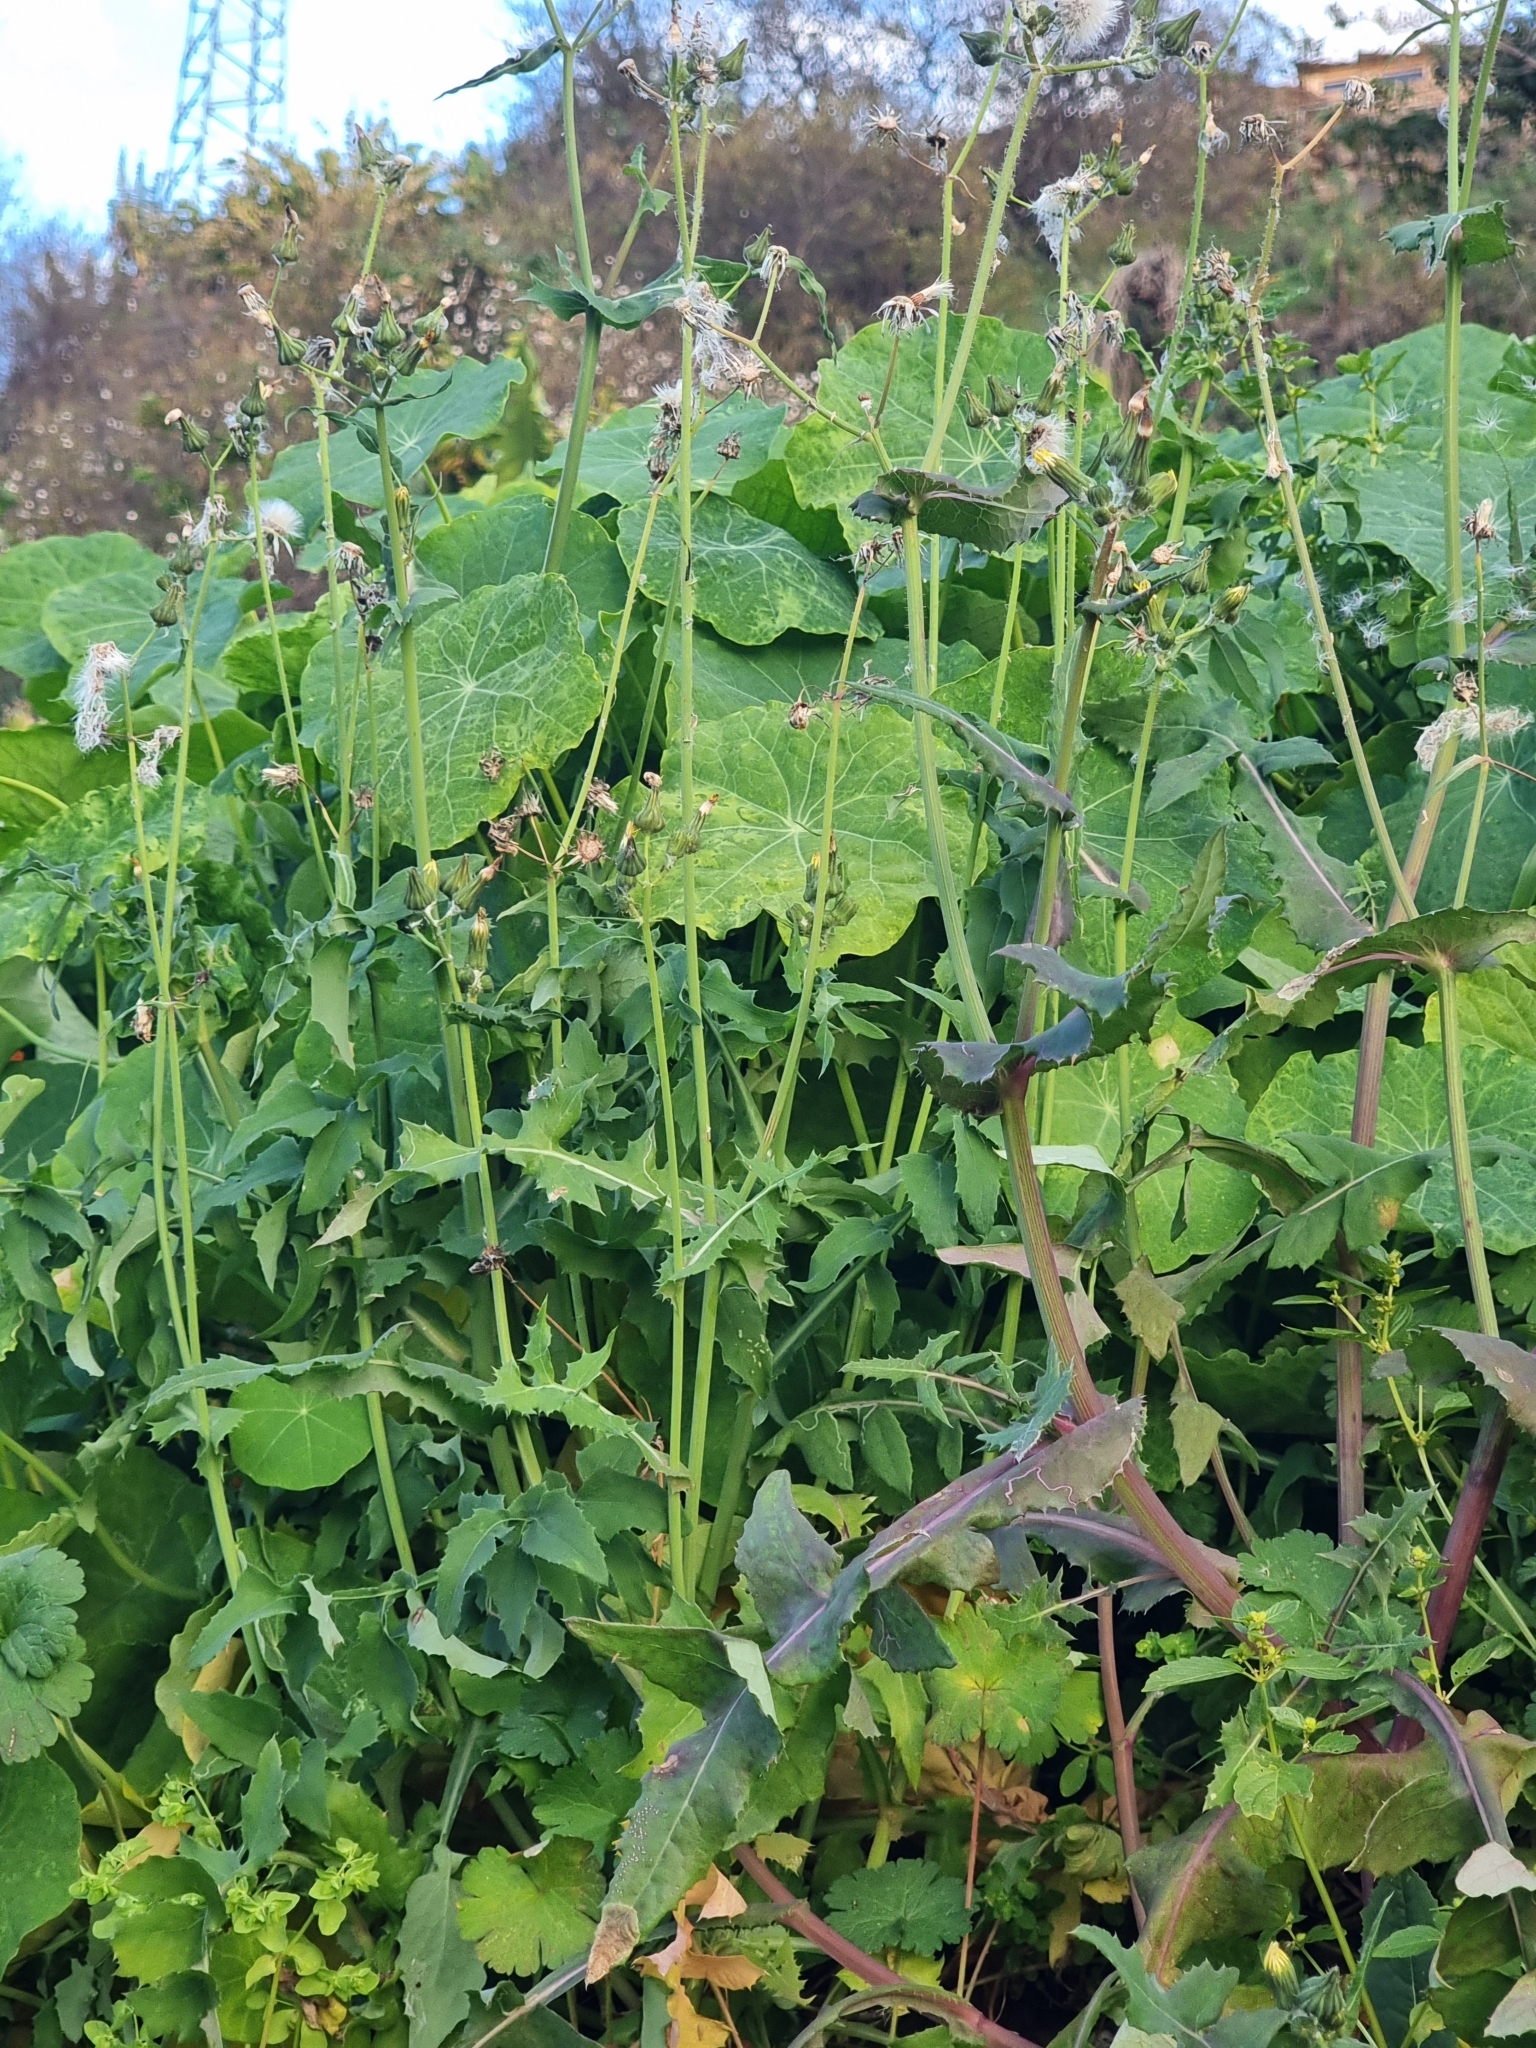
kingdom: Plantae
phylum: Tracheophyta
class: Magnoliopsida
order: Asterales
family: Asteraceae
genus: Sonchus
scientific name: Sonchus oleraceus
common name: Common sowthistle
